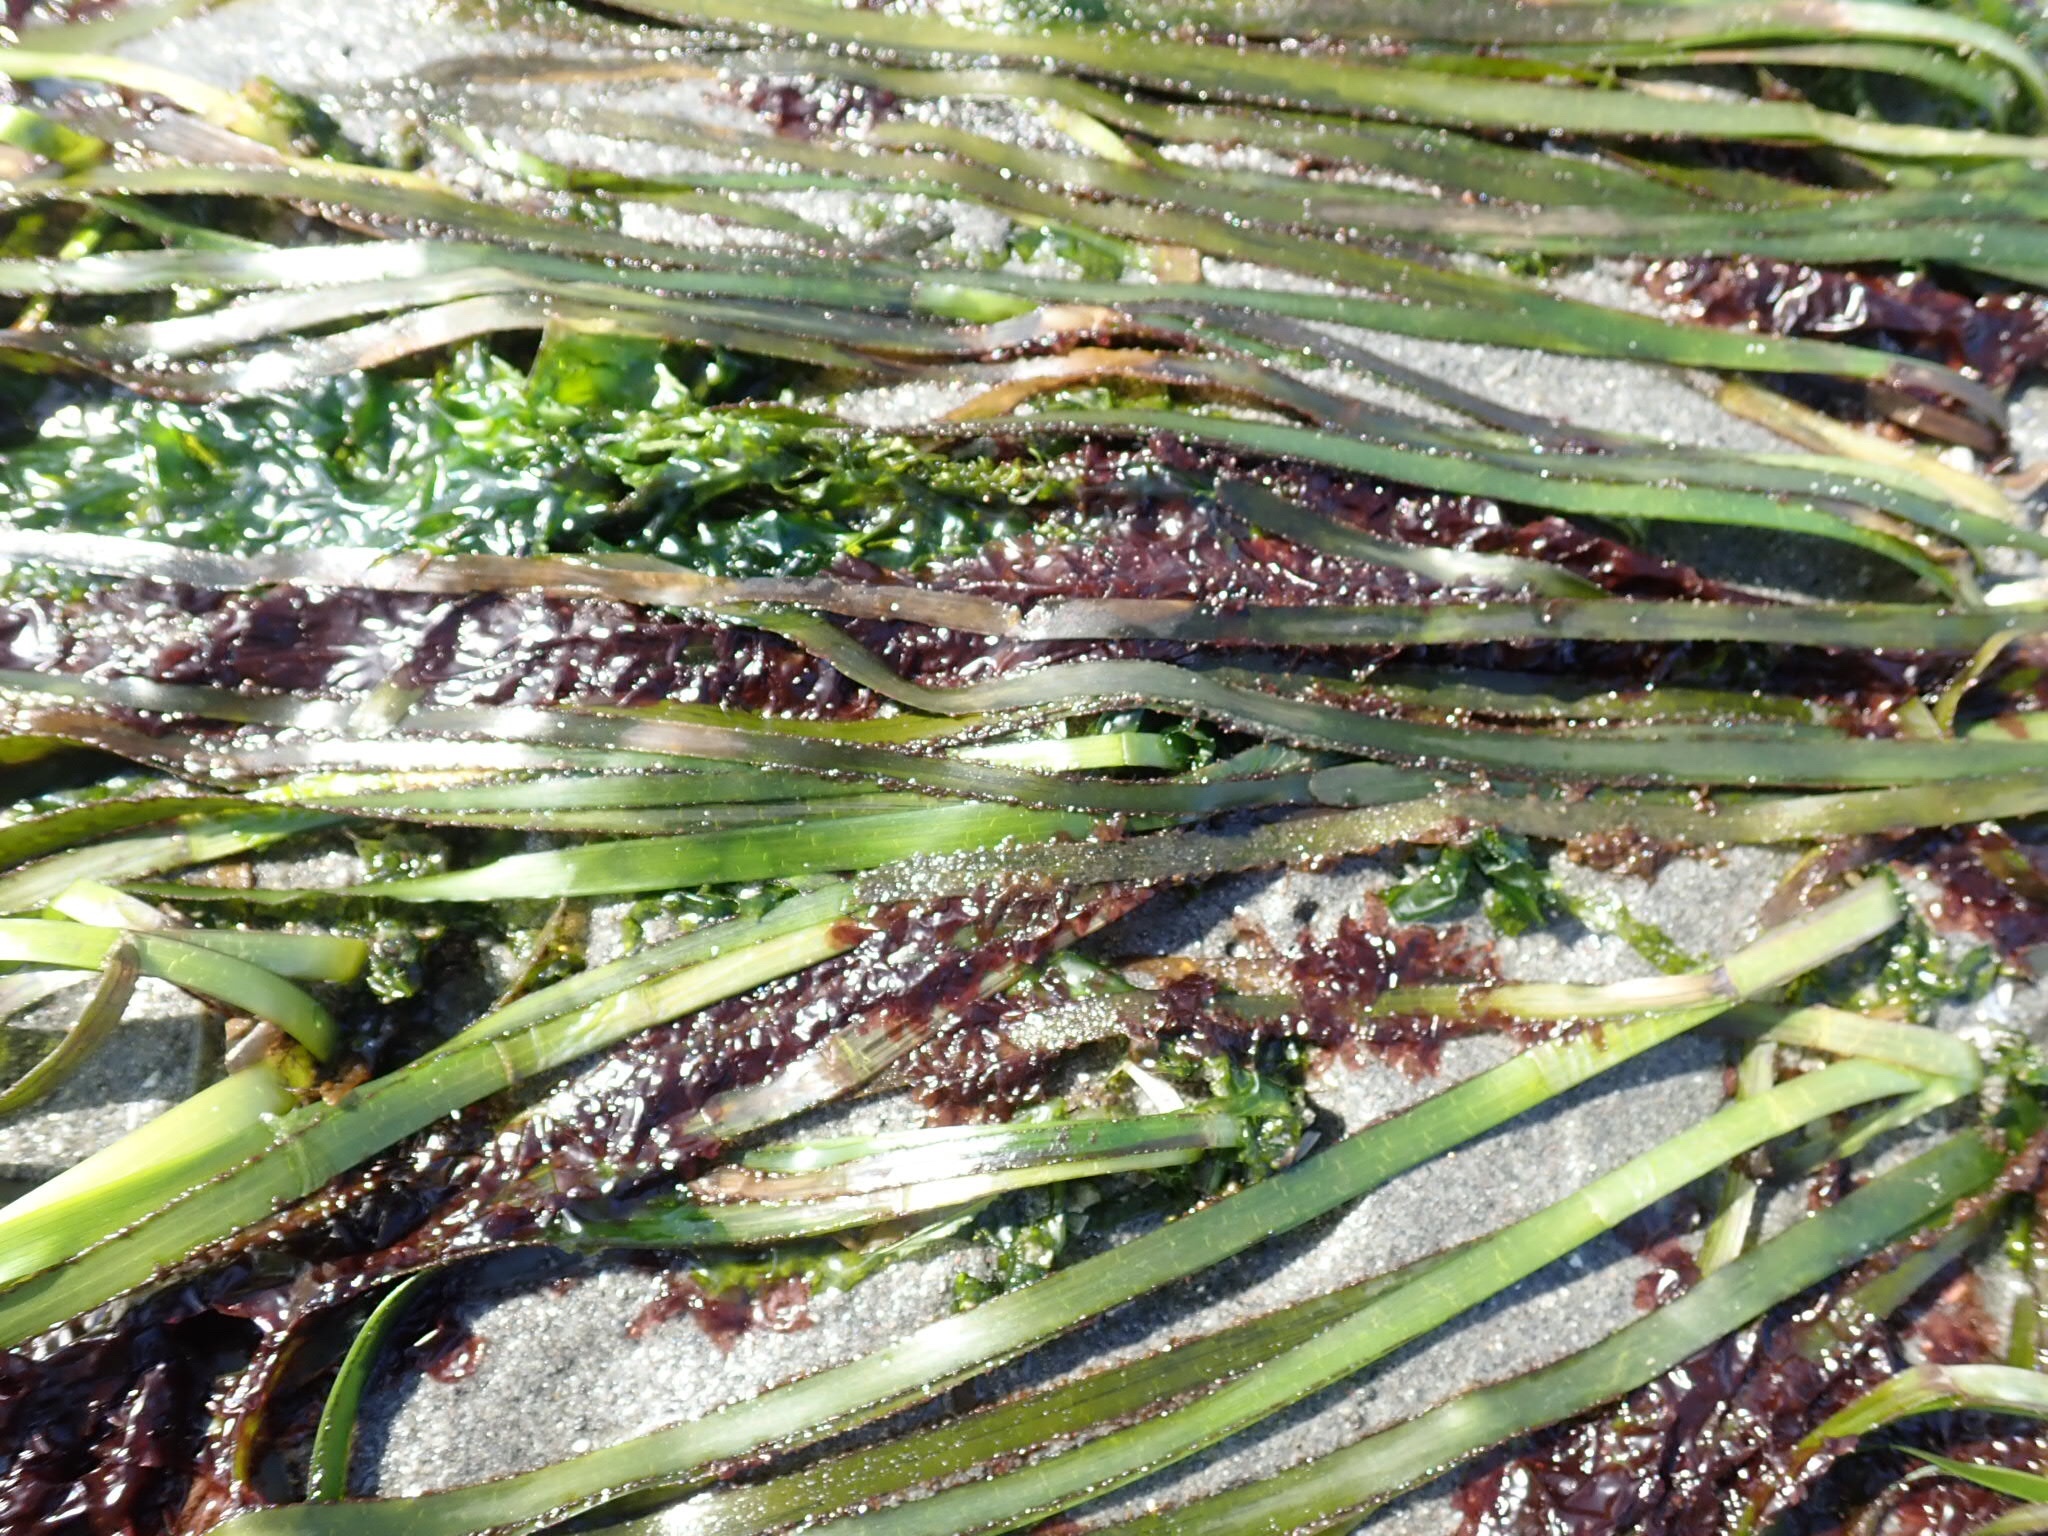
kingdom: Plantae
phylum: Tracheophyta
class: Liliopsida
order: Alismatales
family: Zosteraceae
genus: Zostera
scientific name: Zostera marina
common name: Eelgrass
